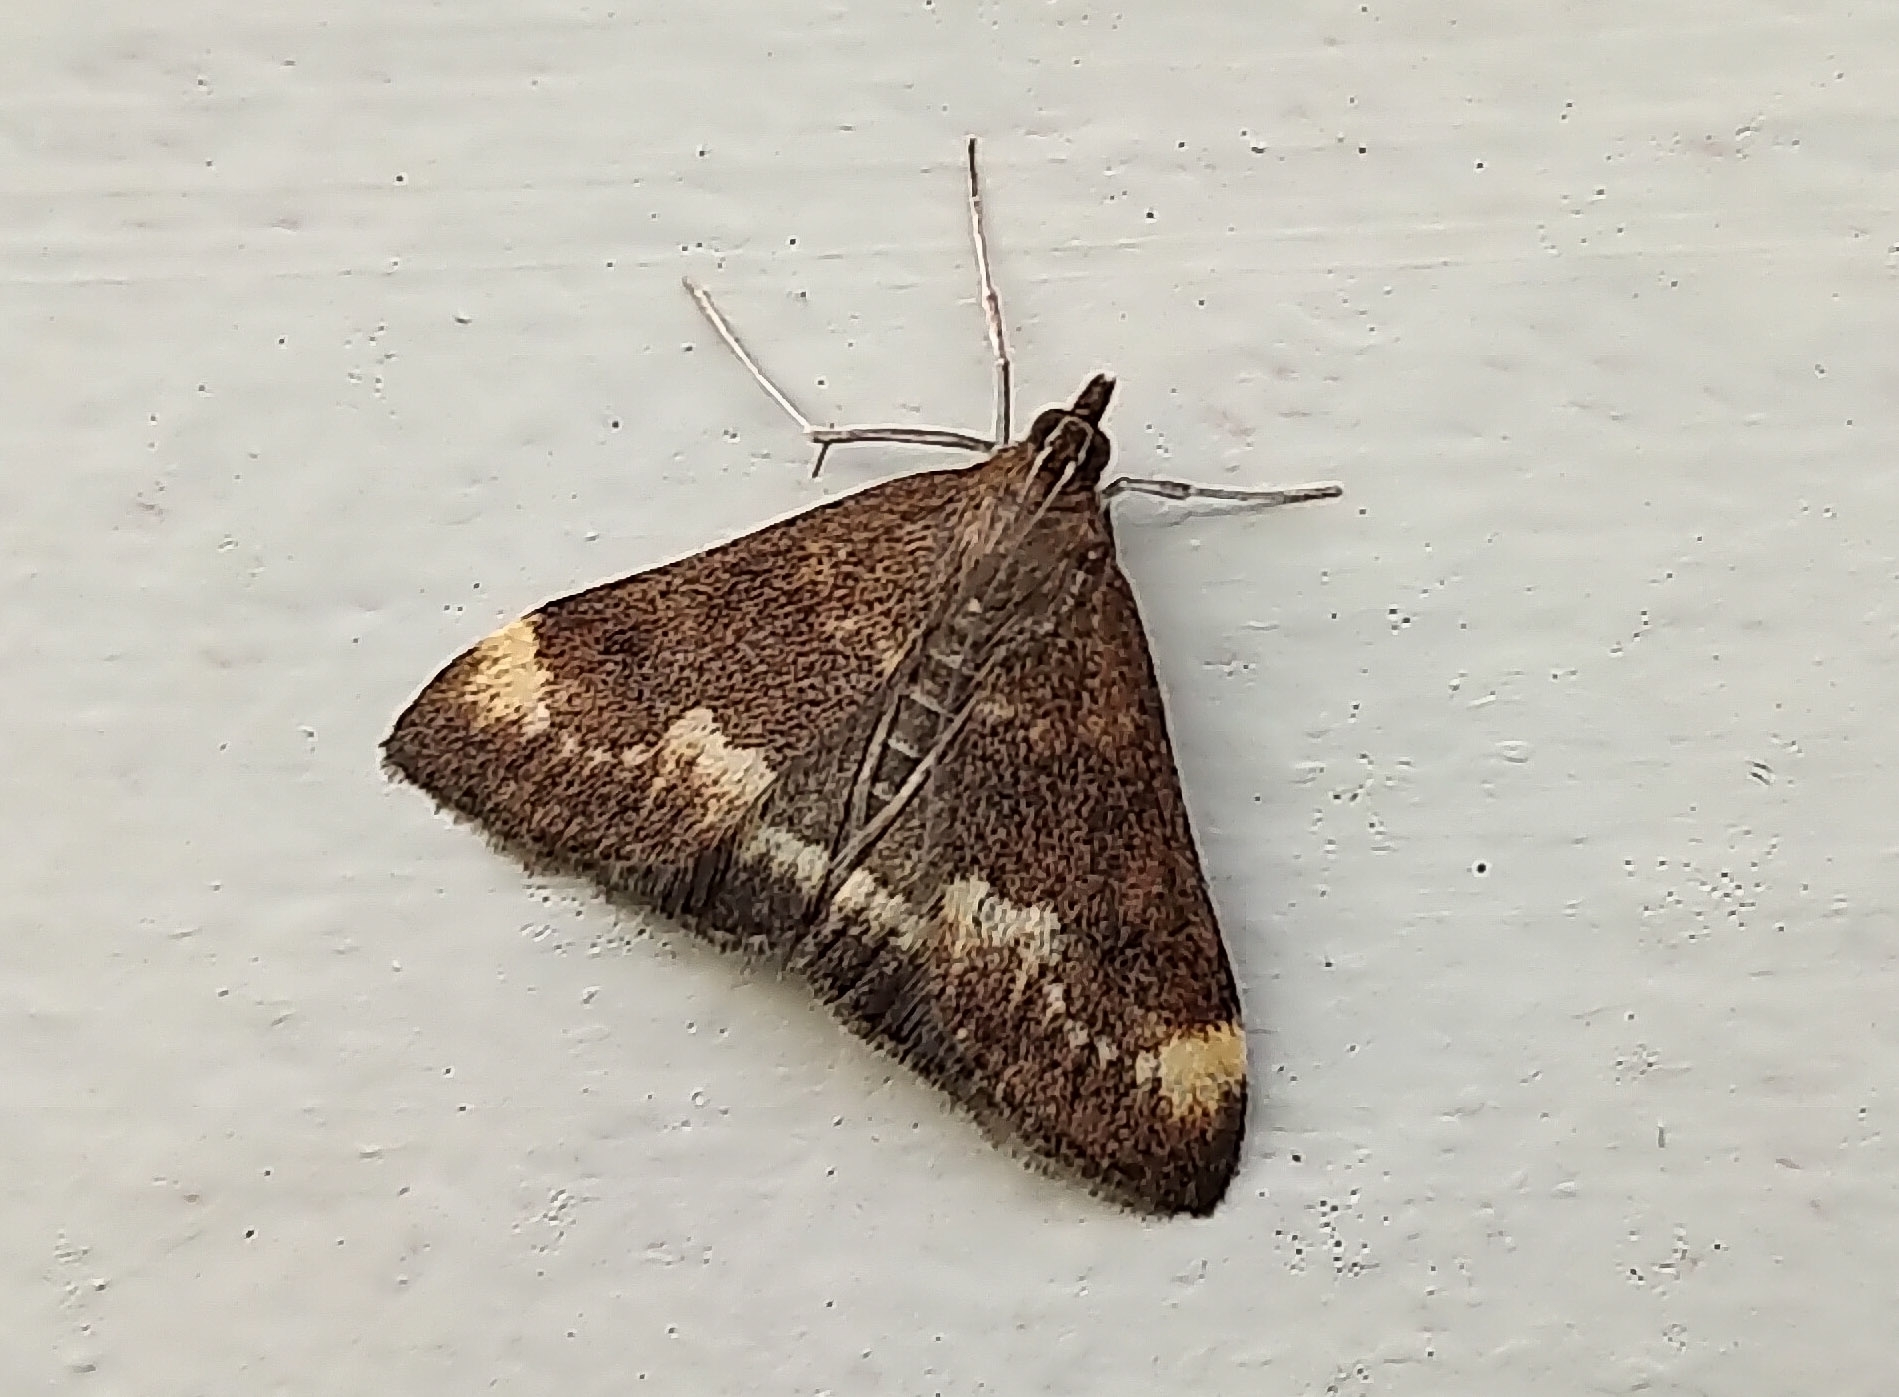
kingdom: Animalia
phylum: Arthropoda
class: Insecta
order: Lepidoptera
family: Crambidae
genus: Pyrausta
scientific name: Pyrausta nicalis
